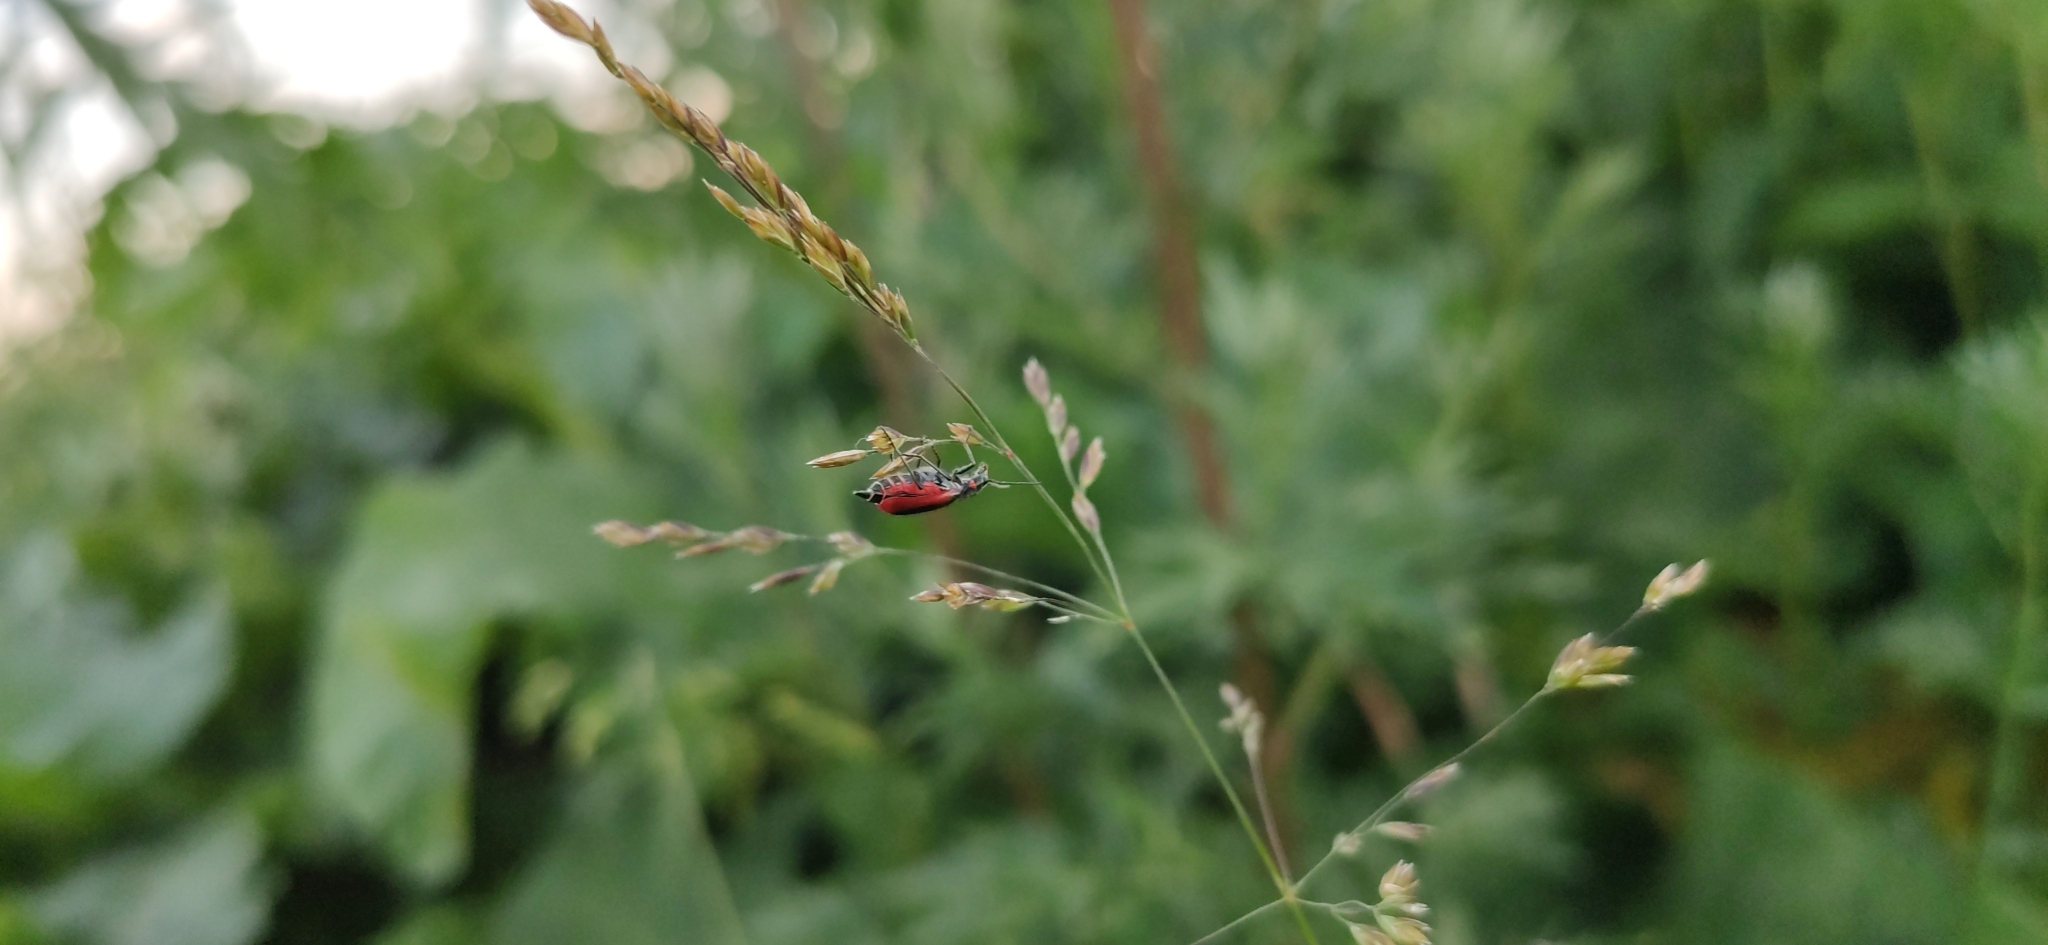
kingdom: Animalia
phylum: Arthropoda
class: Insecta
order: Coleoptera
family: Melyridae
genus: Malachius
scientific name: Malachius aeneus
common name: Scarlet malachite beetle
